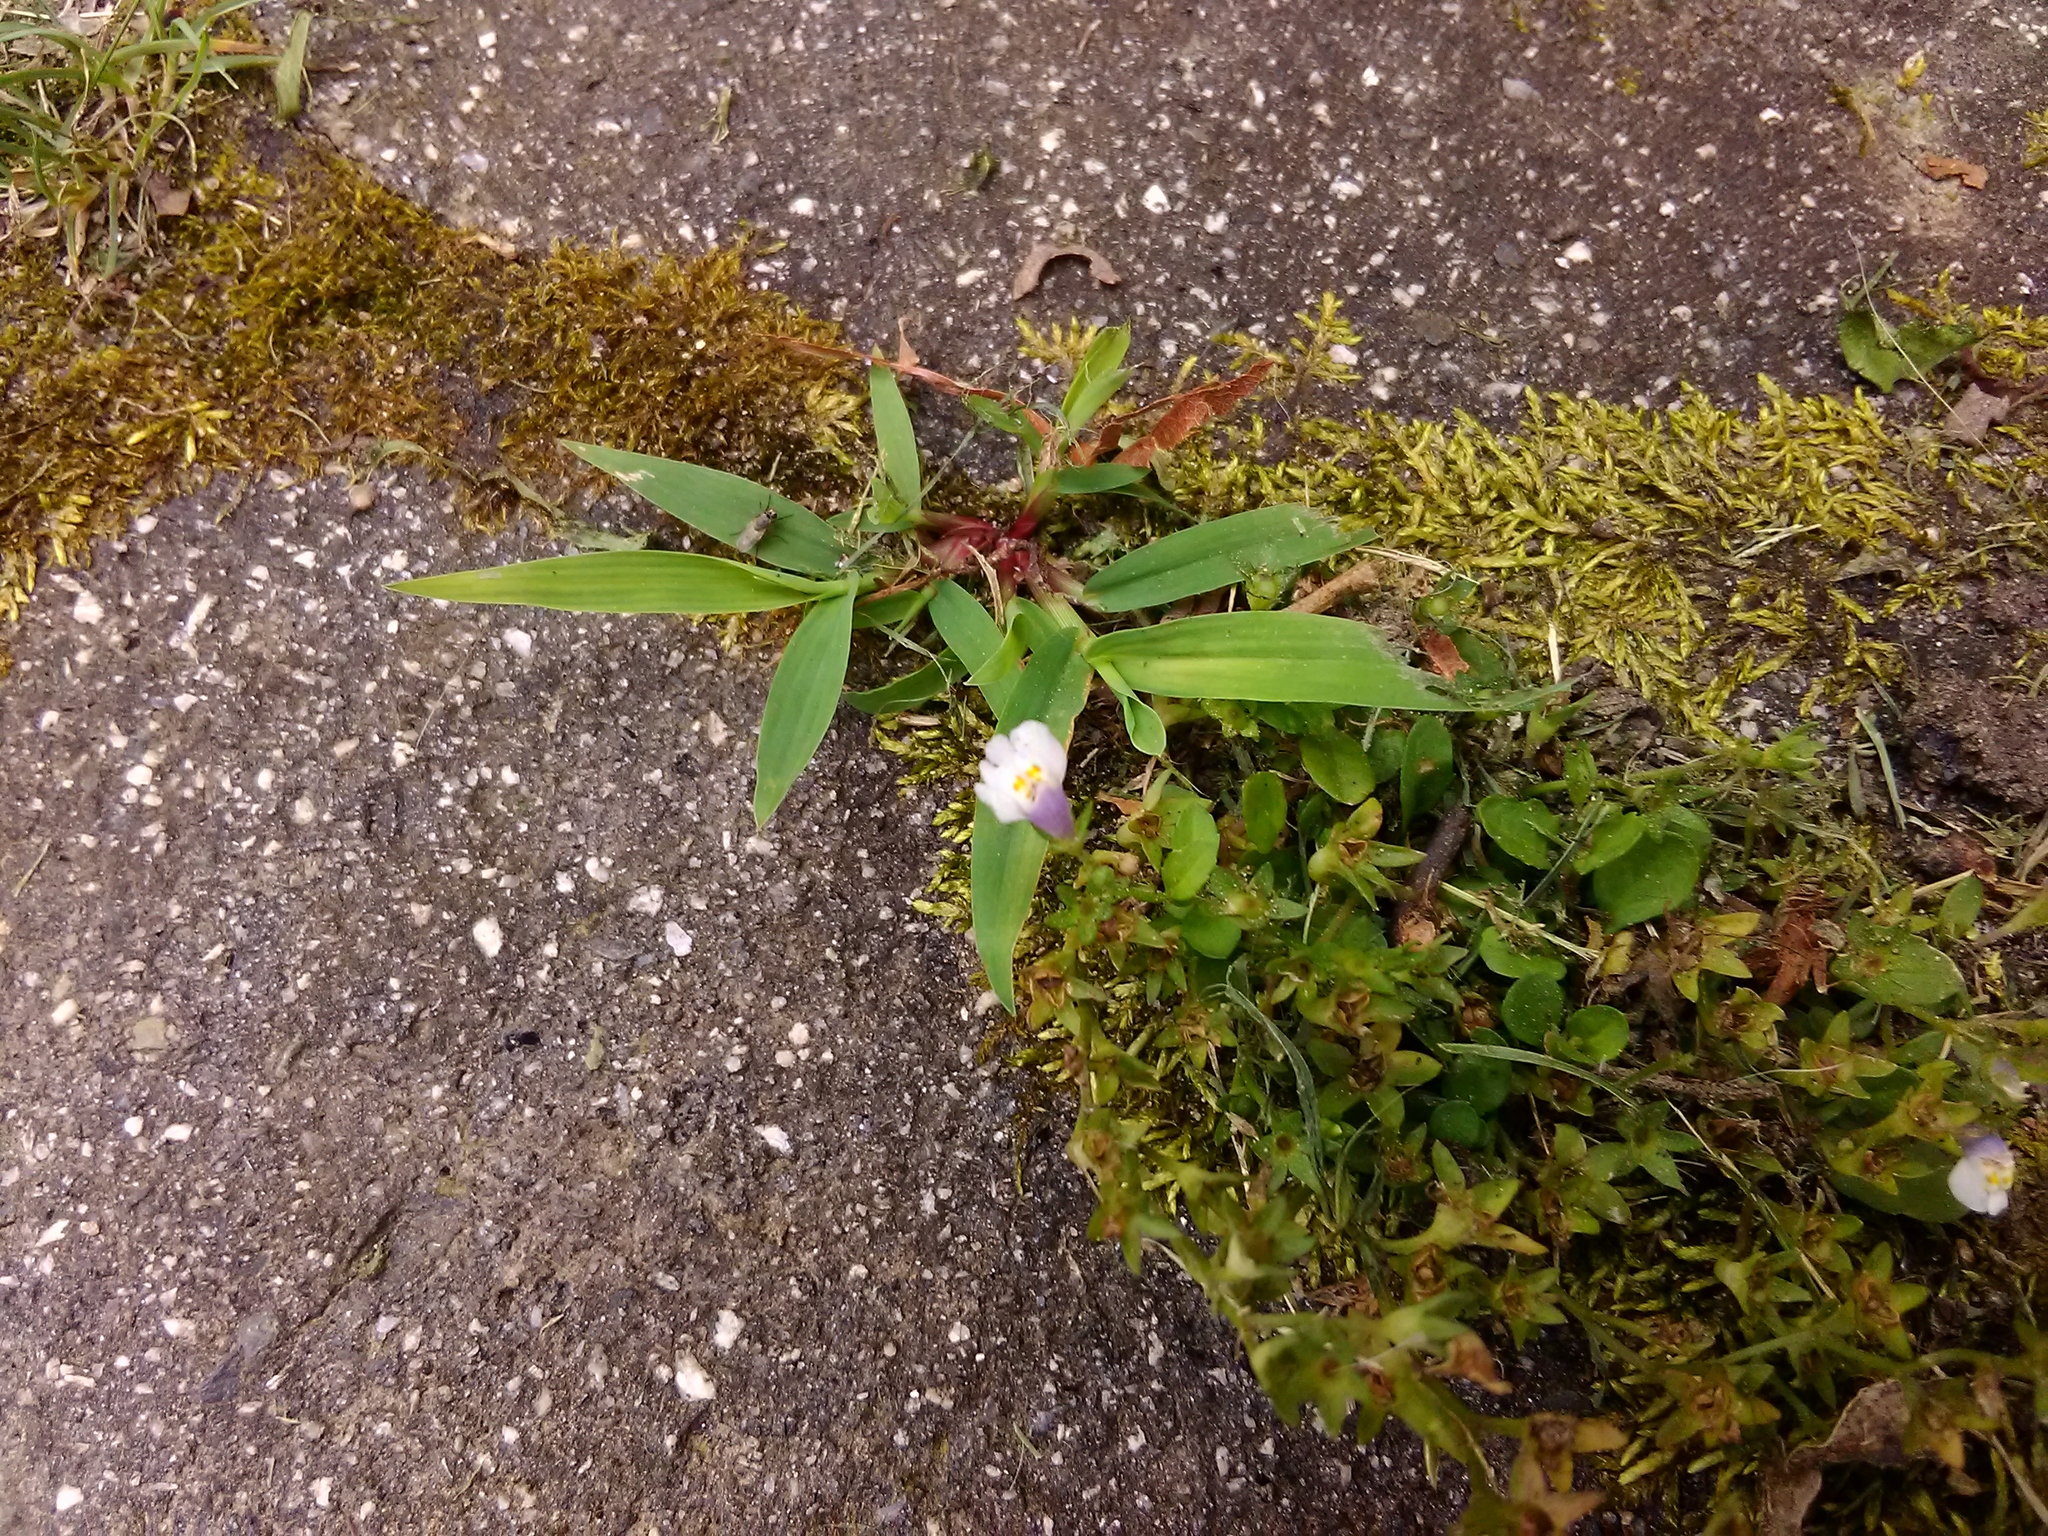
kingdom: Plantae
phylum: Tracheophyta
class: Magnoliopsida
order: Lamiales
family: Mazaceae
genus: Mazus
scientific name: Mazus pumilus
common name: Japanese mazus
